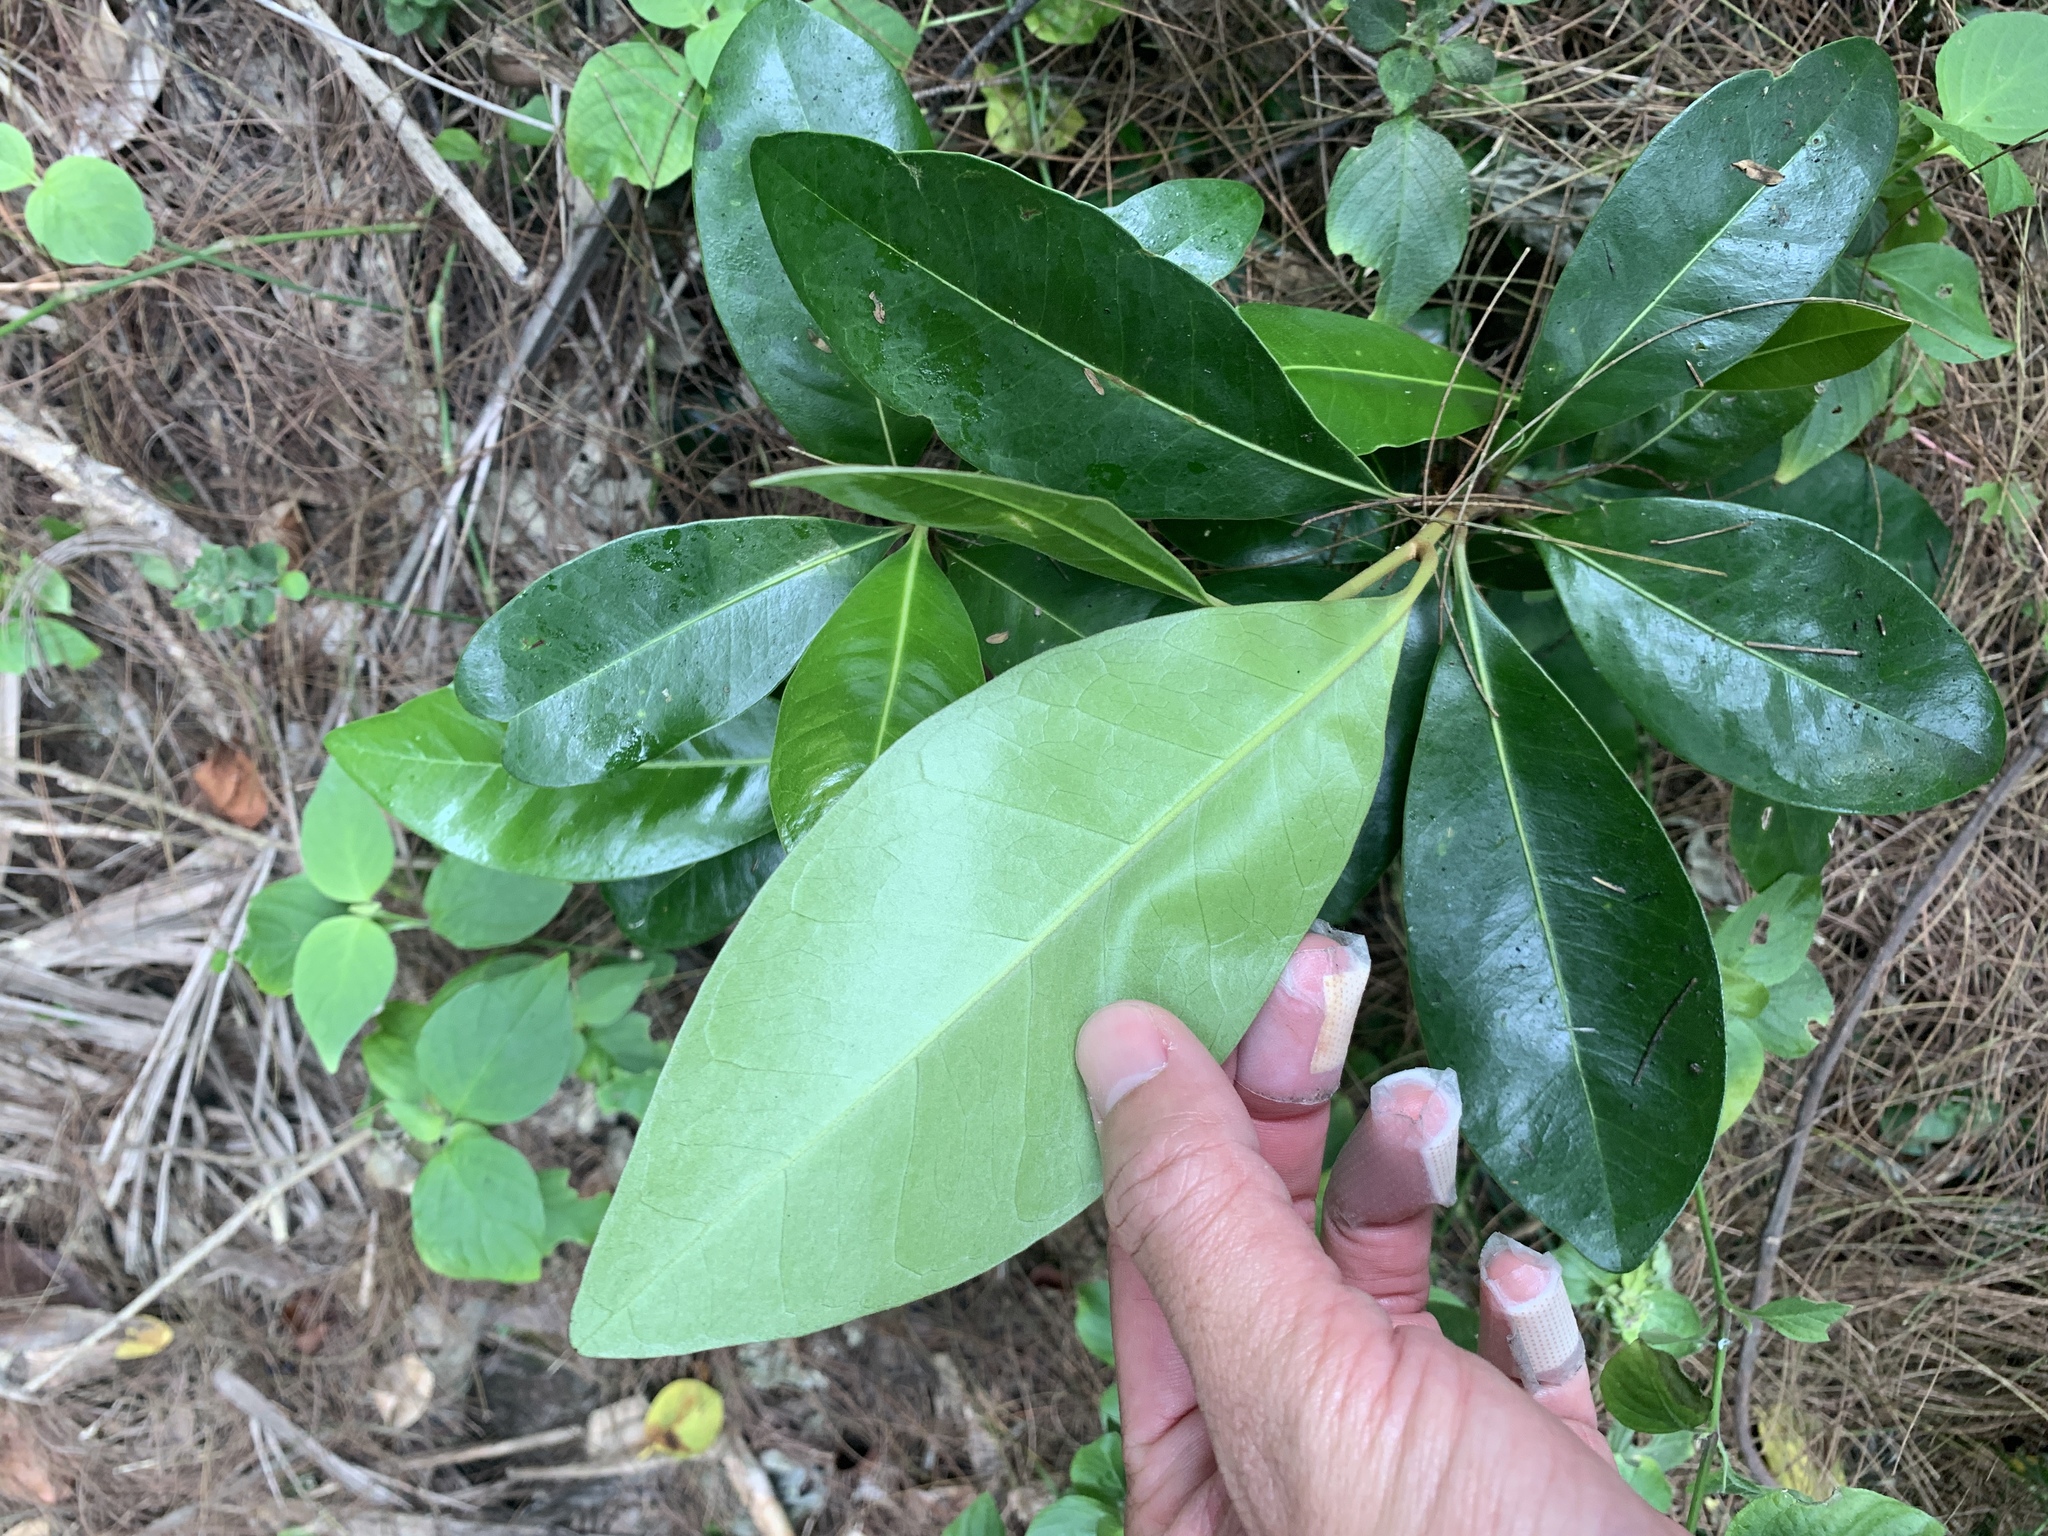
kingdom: Plantae
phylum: Tracheophyta
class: Magnoliopsida
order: Ericales
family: Sapotaceae
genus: Planchonella
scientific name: Planchonella obovata
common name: Black-ash
